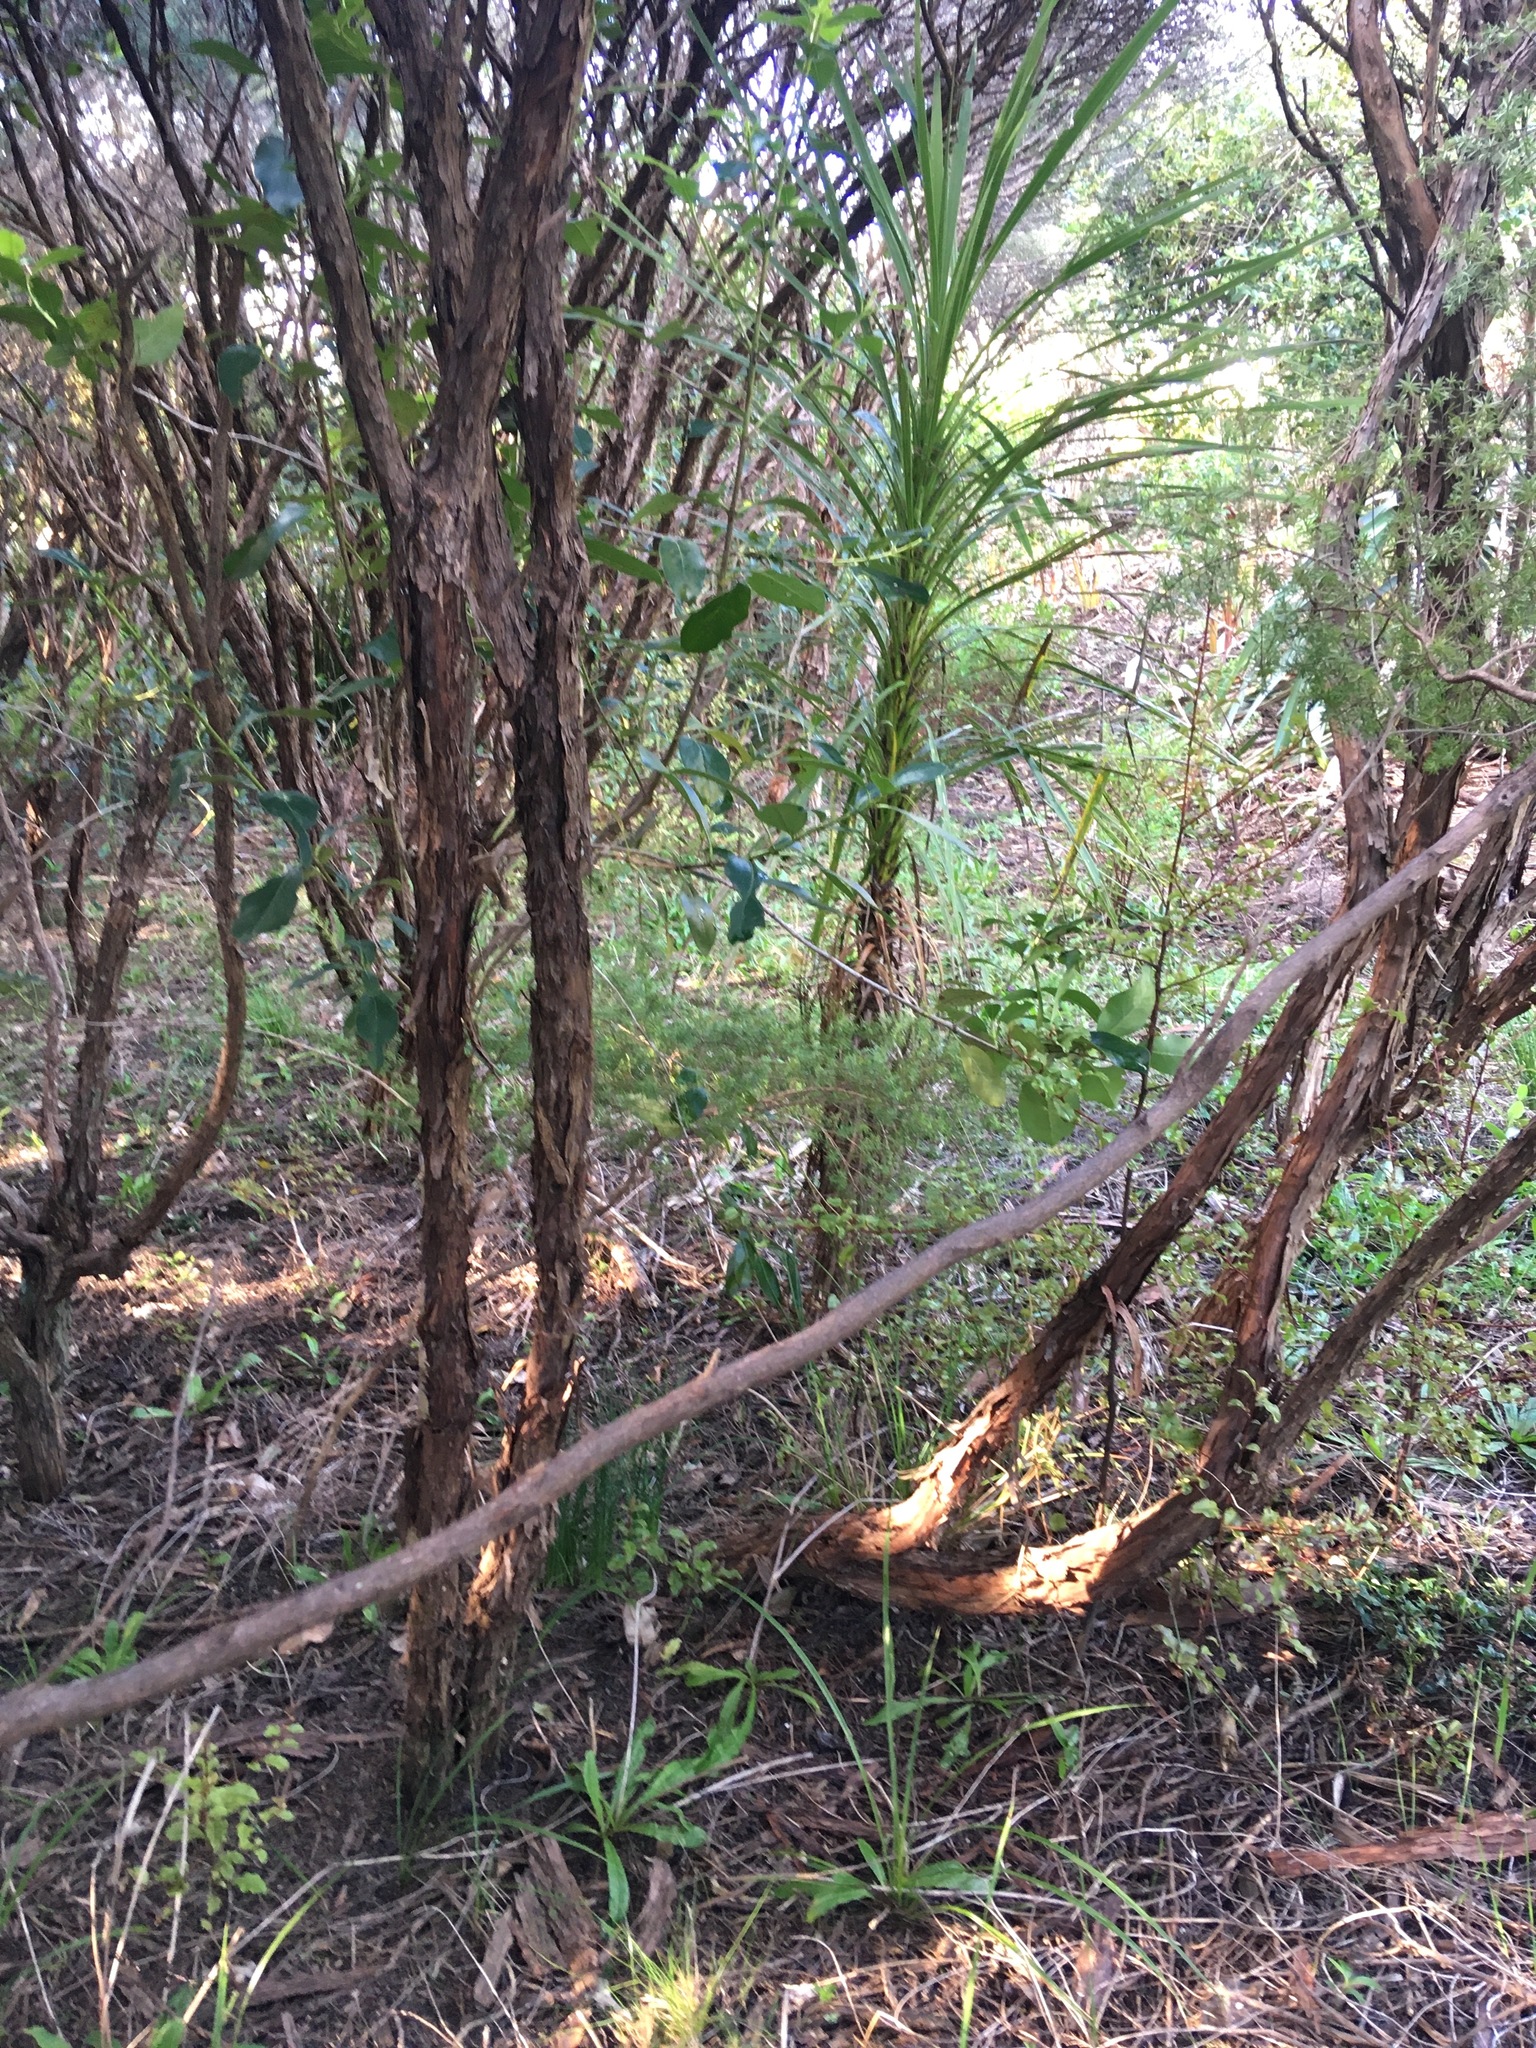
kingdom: Plantae
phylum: Tracheophyta
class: Liliopsida
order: Asparagales
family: Asparagaceae
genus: Cordyline
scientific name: Cordyline australis
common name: Cabbage-palm
